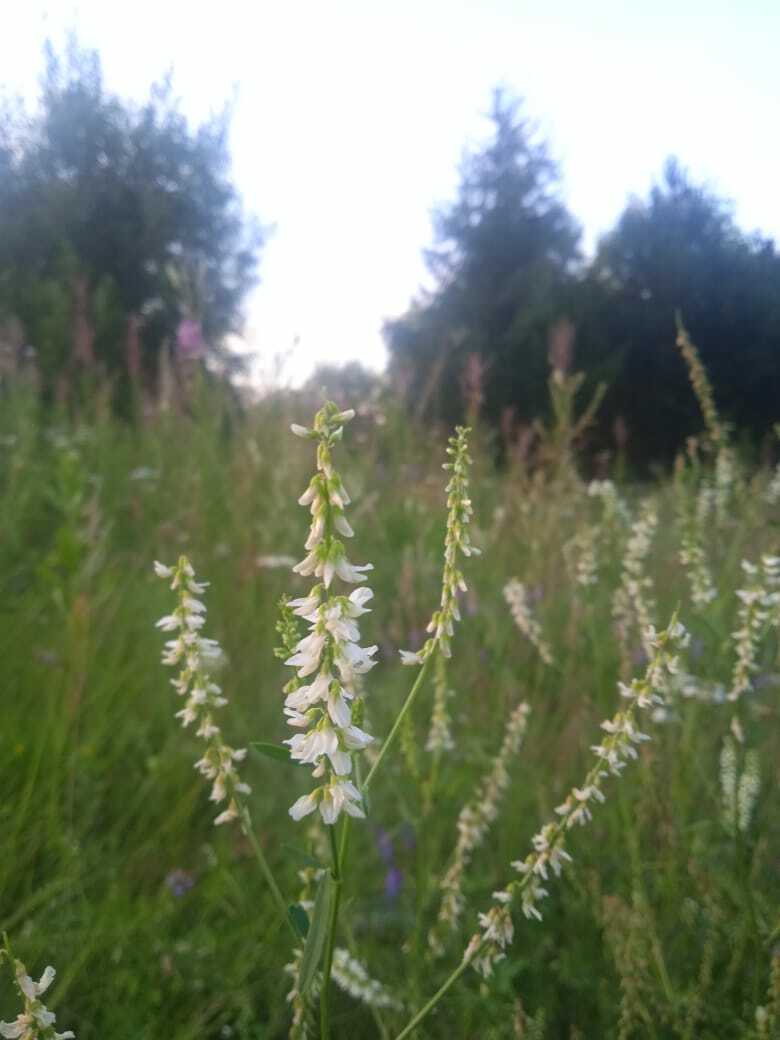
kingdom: Plantae
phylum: Tracheophyta
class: Magnoliopsida
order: Fabales
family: Fabaceae
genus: Melilotus
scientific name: Melilotus albus
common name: White melilot
